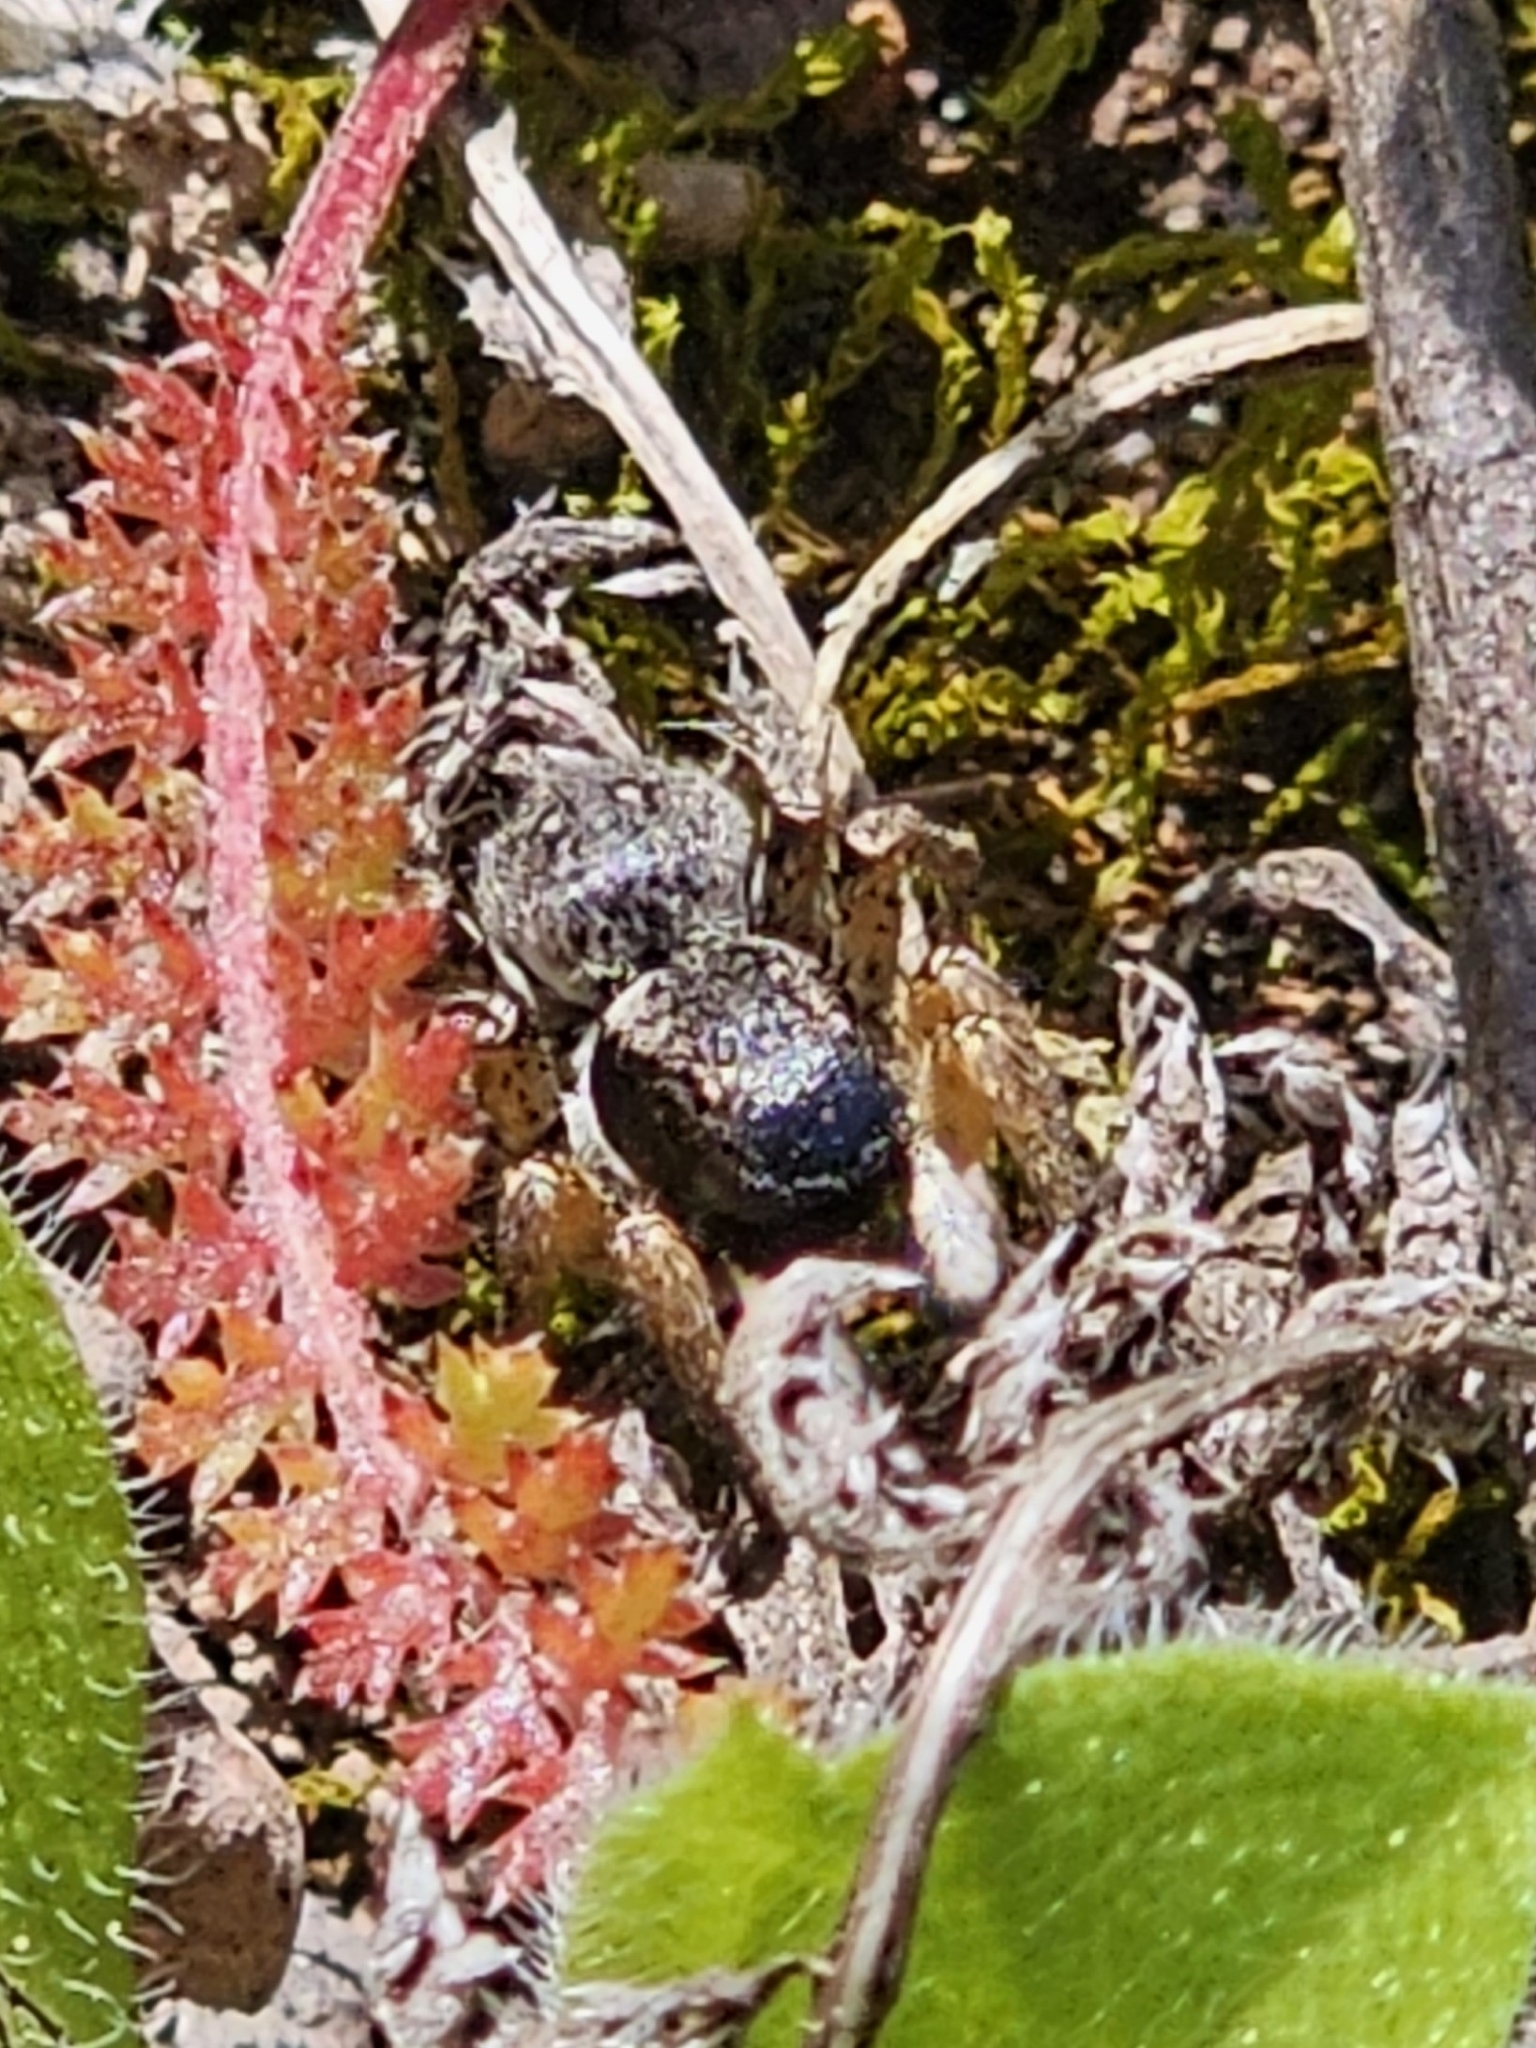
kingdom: Animalia
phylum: Arthropoda
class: Arachnida
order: Araneae
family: Salticidae
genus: Asianellus
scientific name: Asianellus festivus
